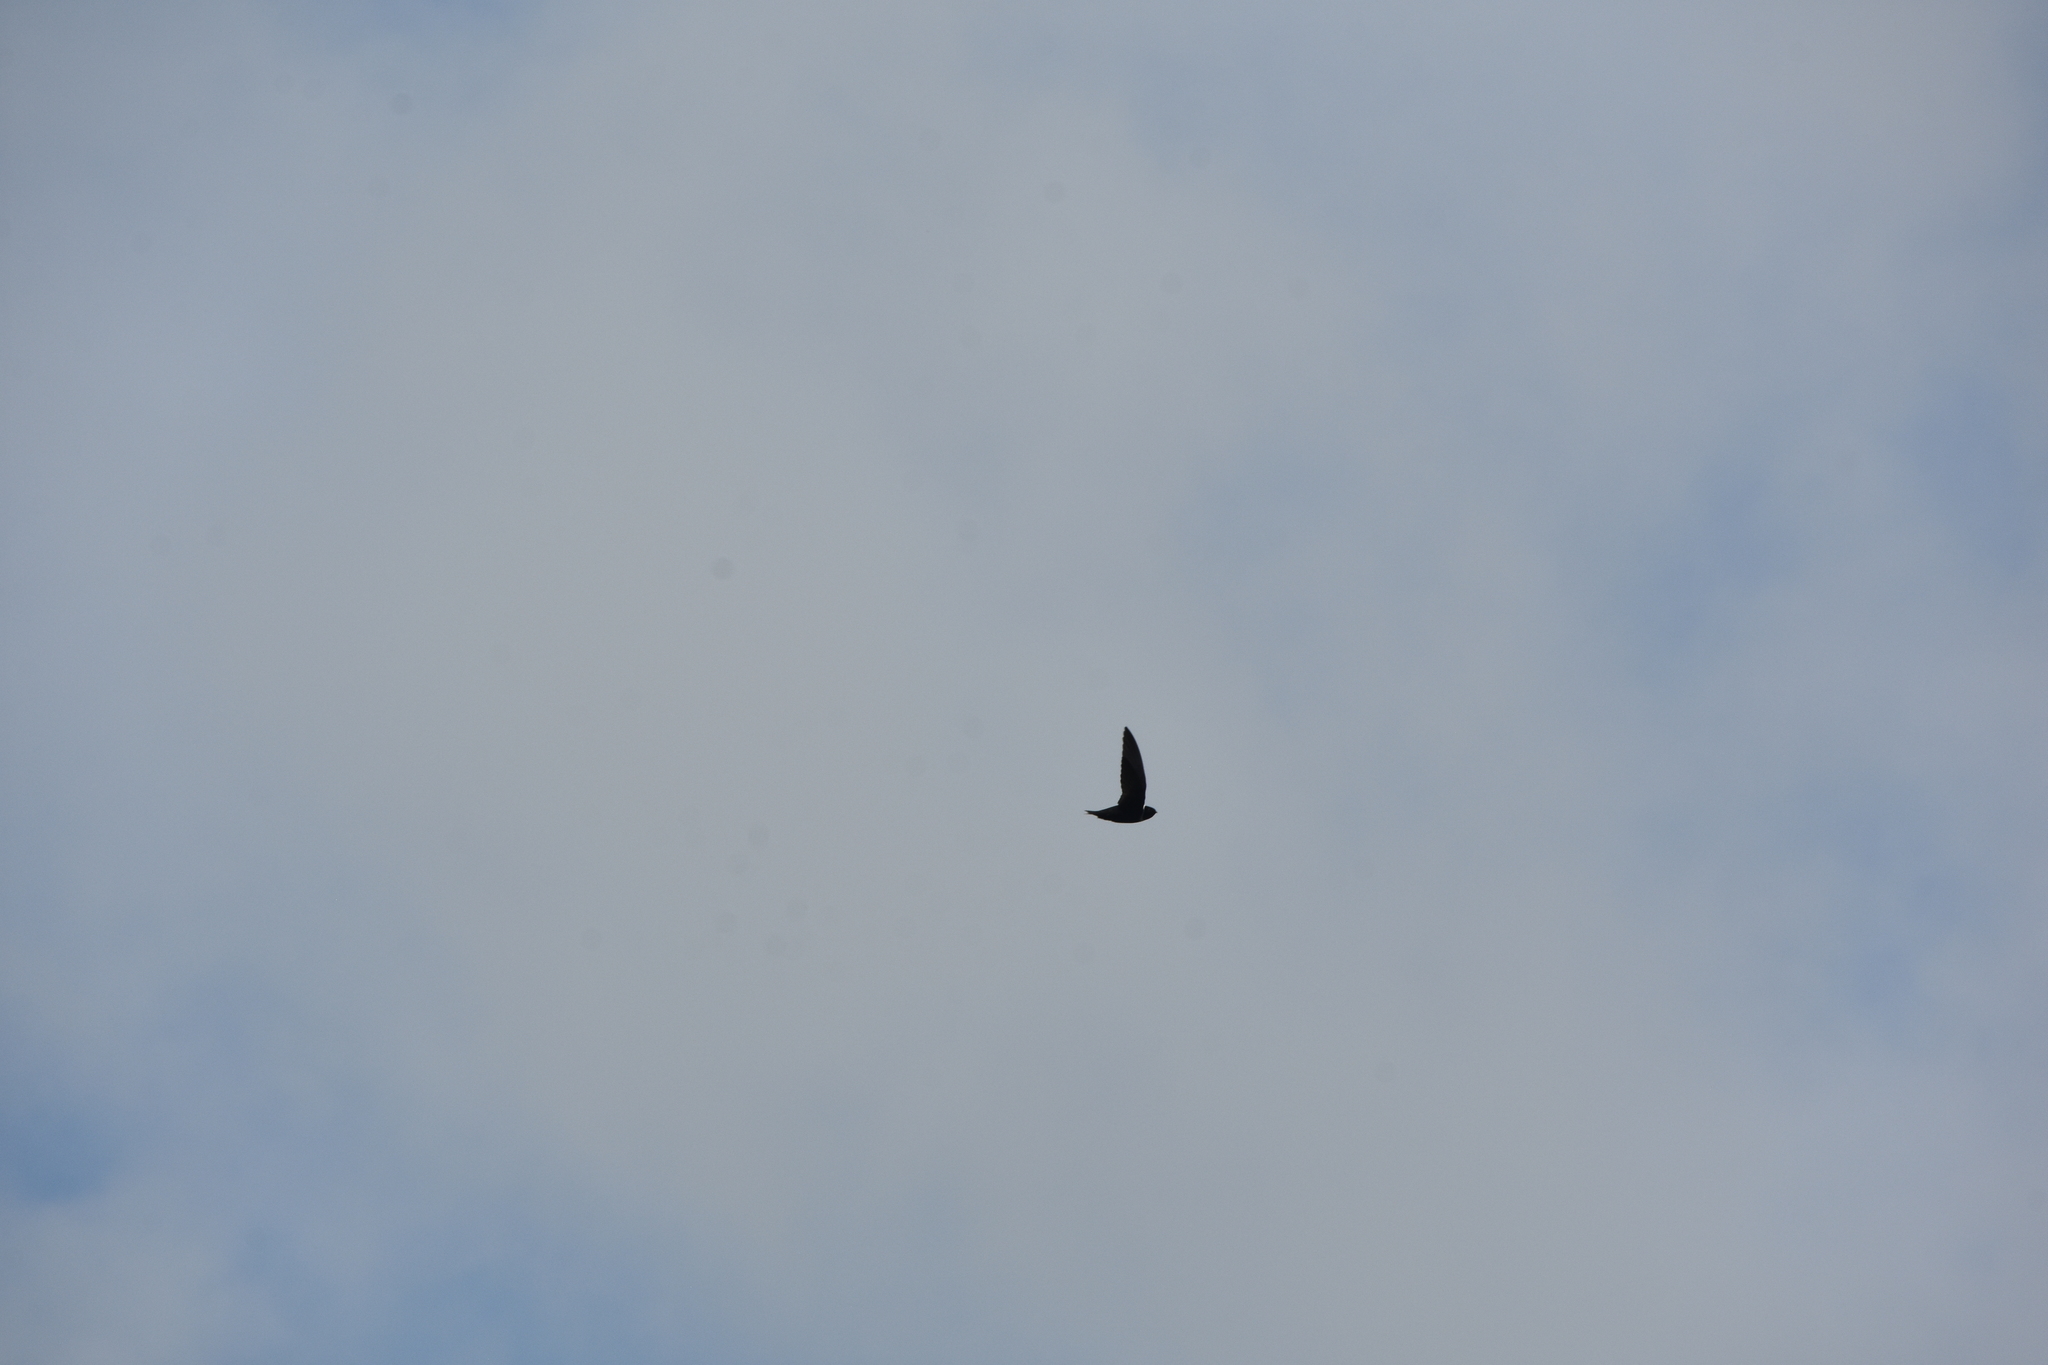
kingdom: Animalia
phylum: Chordata
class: Aves
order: Apodiformes
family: Apodidae
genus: Streptoprocne
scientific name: Streptoprocne zonaris
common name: White-collared swift
